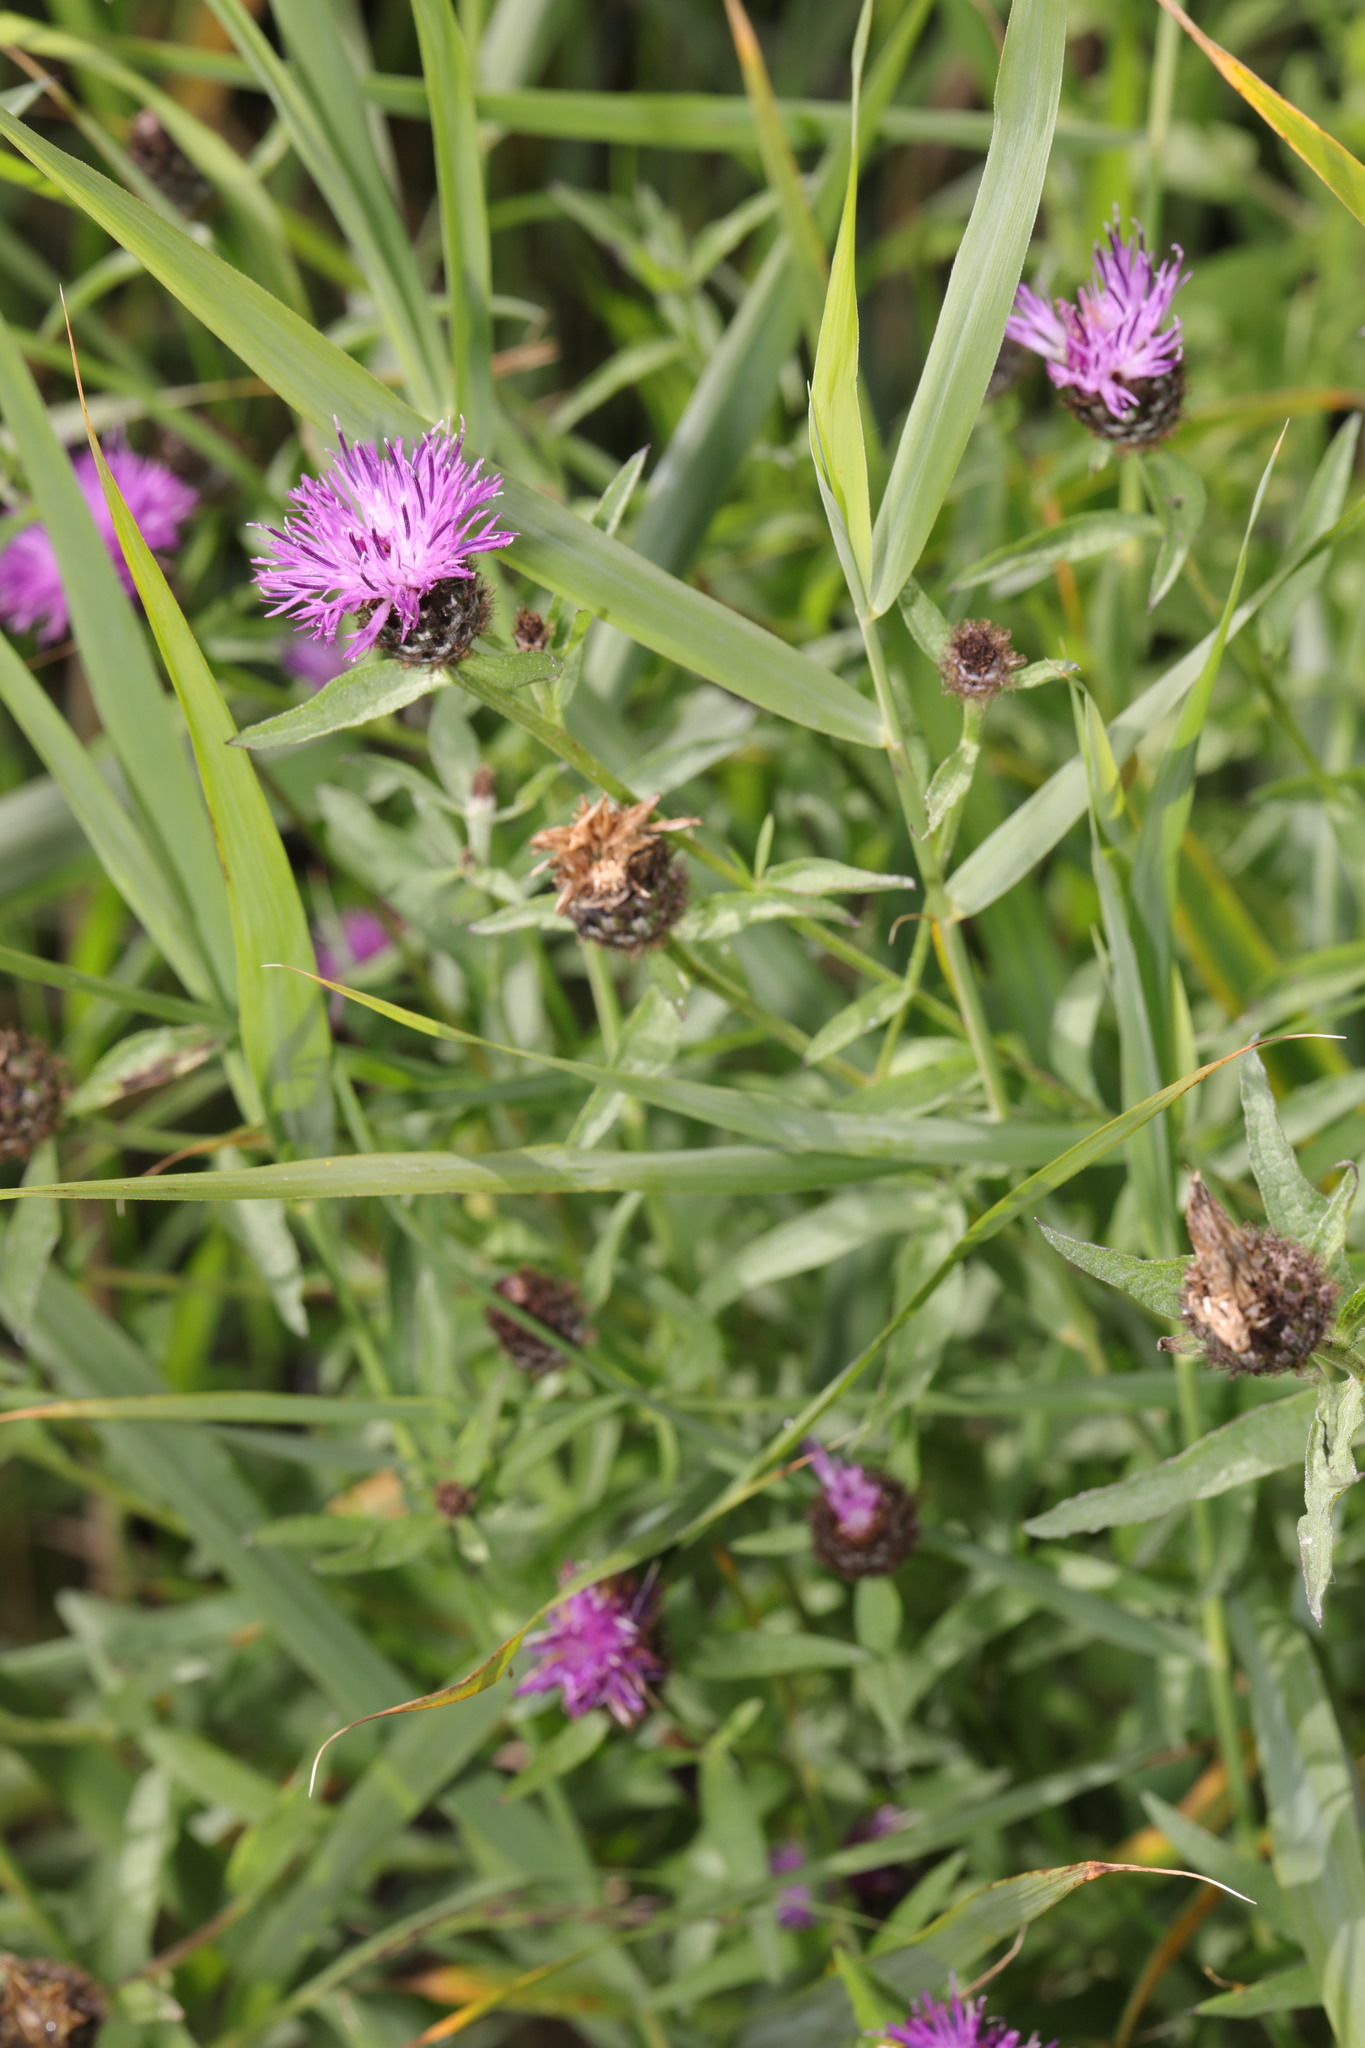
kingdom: Plantae
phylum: Tracheophyta
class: Magnoliopsida
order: Asterales
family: Asteraceae
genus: Centaurea
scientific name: Centaurea nigra
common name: Lesser knapweed
